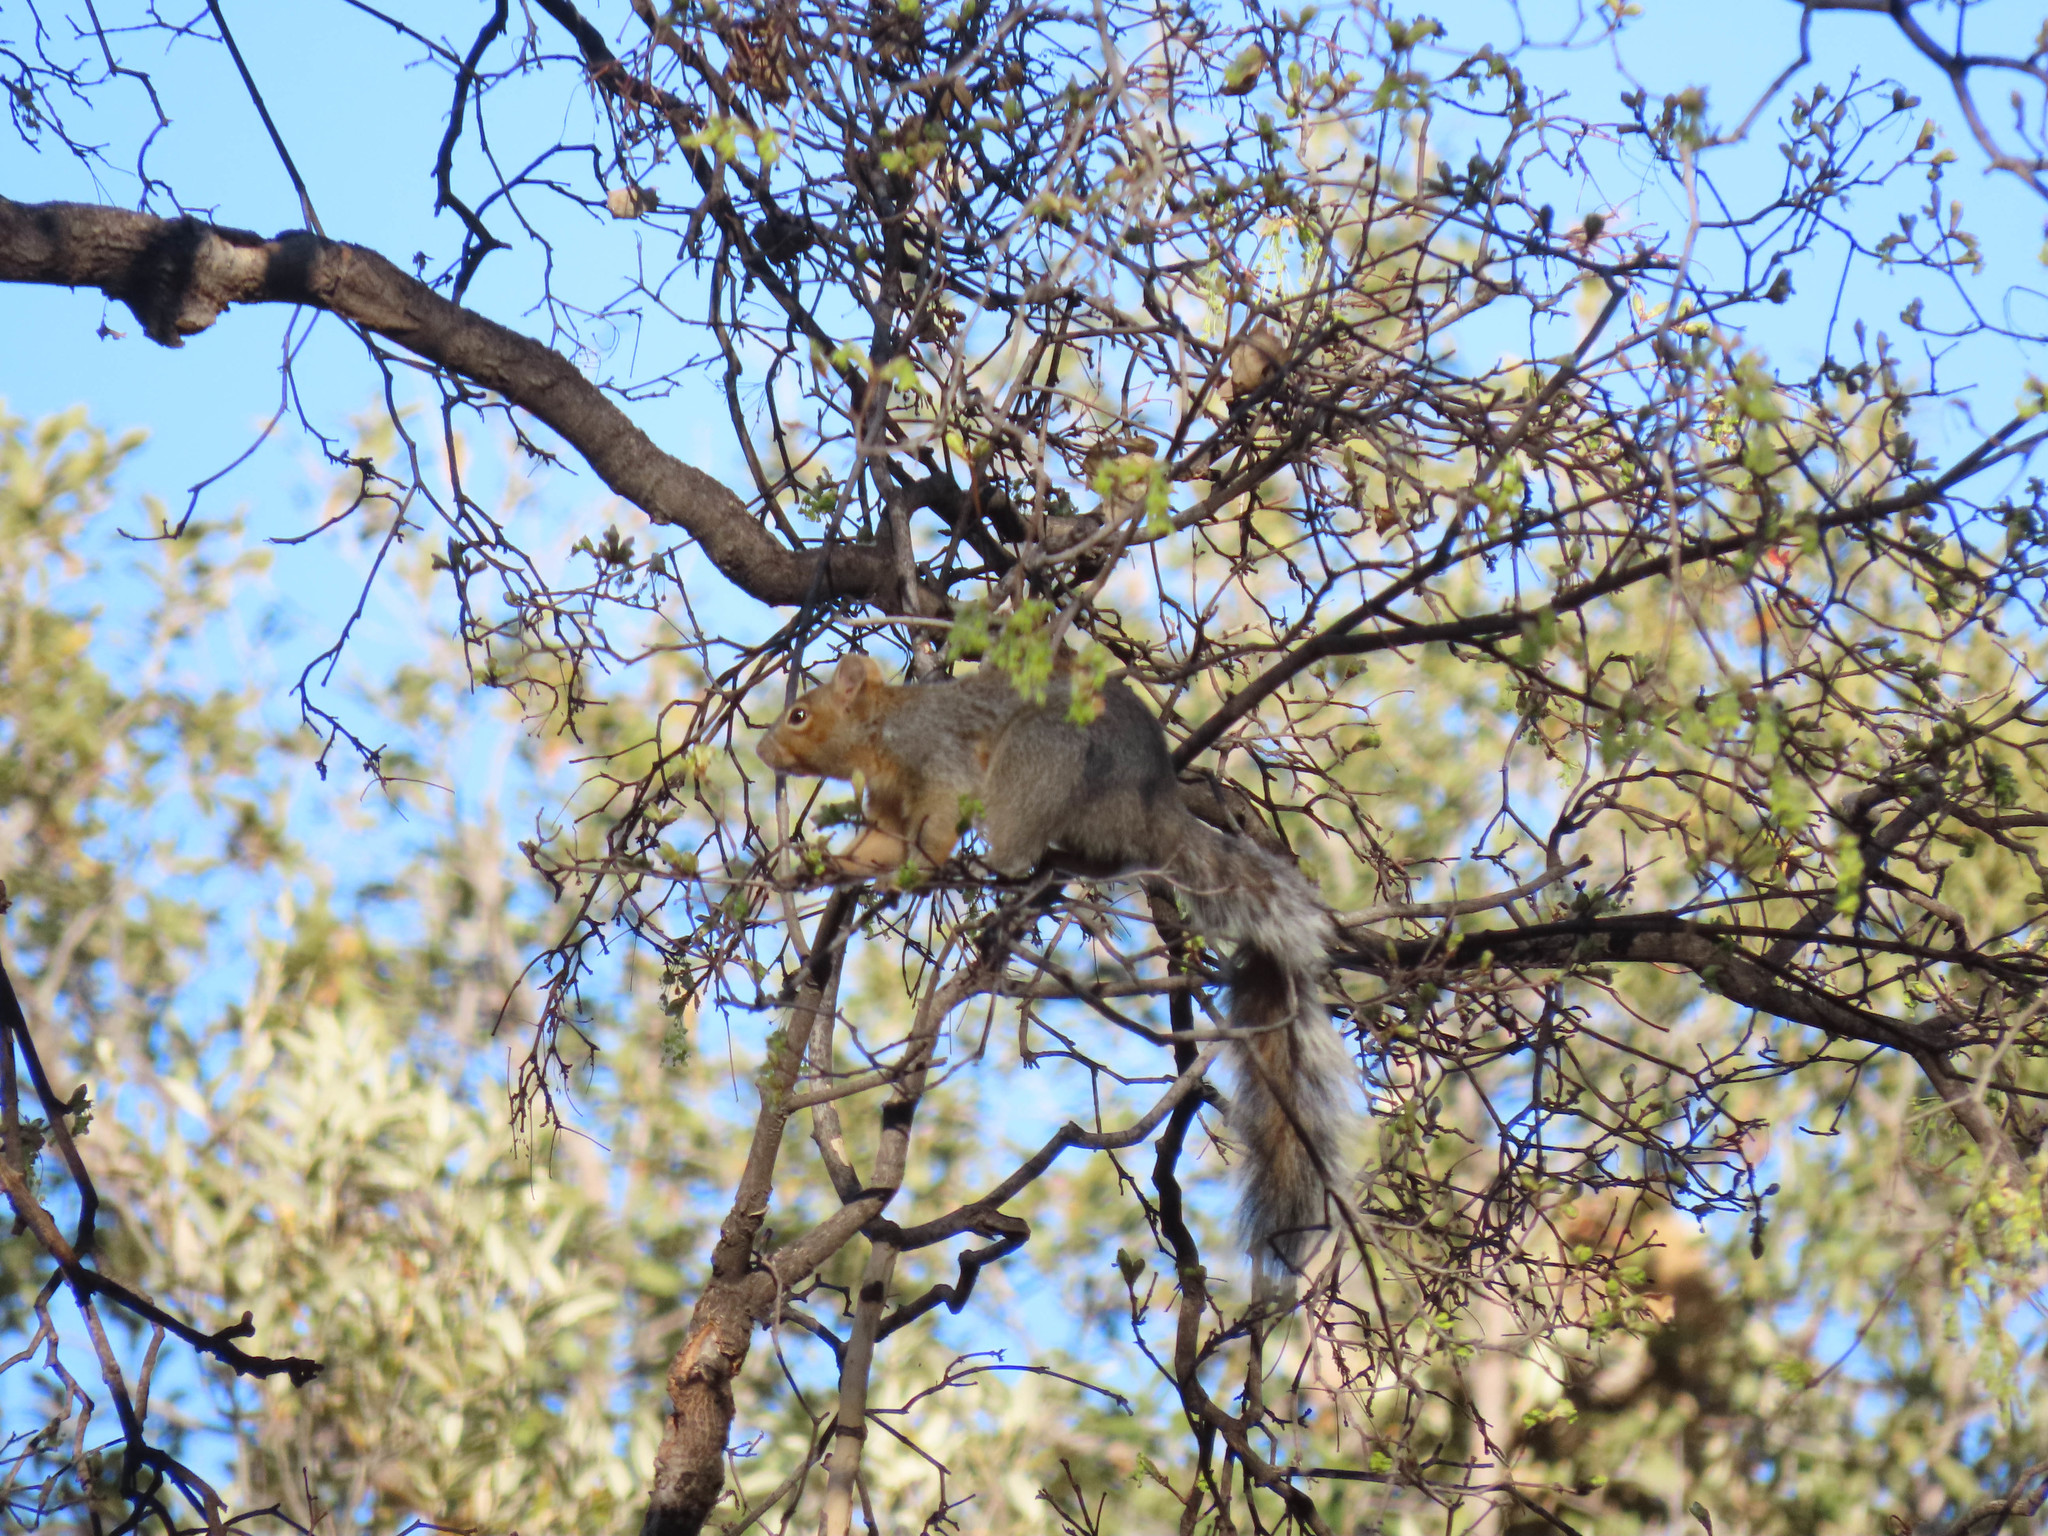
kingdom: Animalia
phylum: Chordata
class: Mammalia
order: Rodentia
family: Sciuridae
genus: Sciurus
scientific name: Sciurus arizonensis
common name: Arizona gray squirrel
